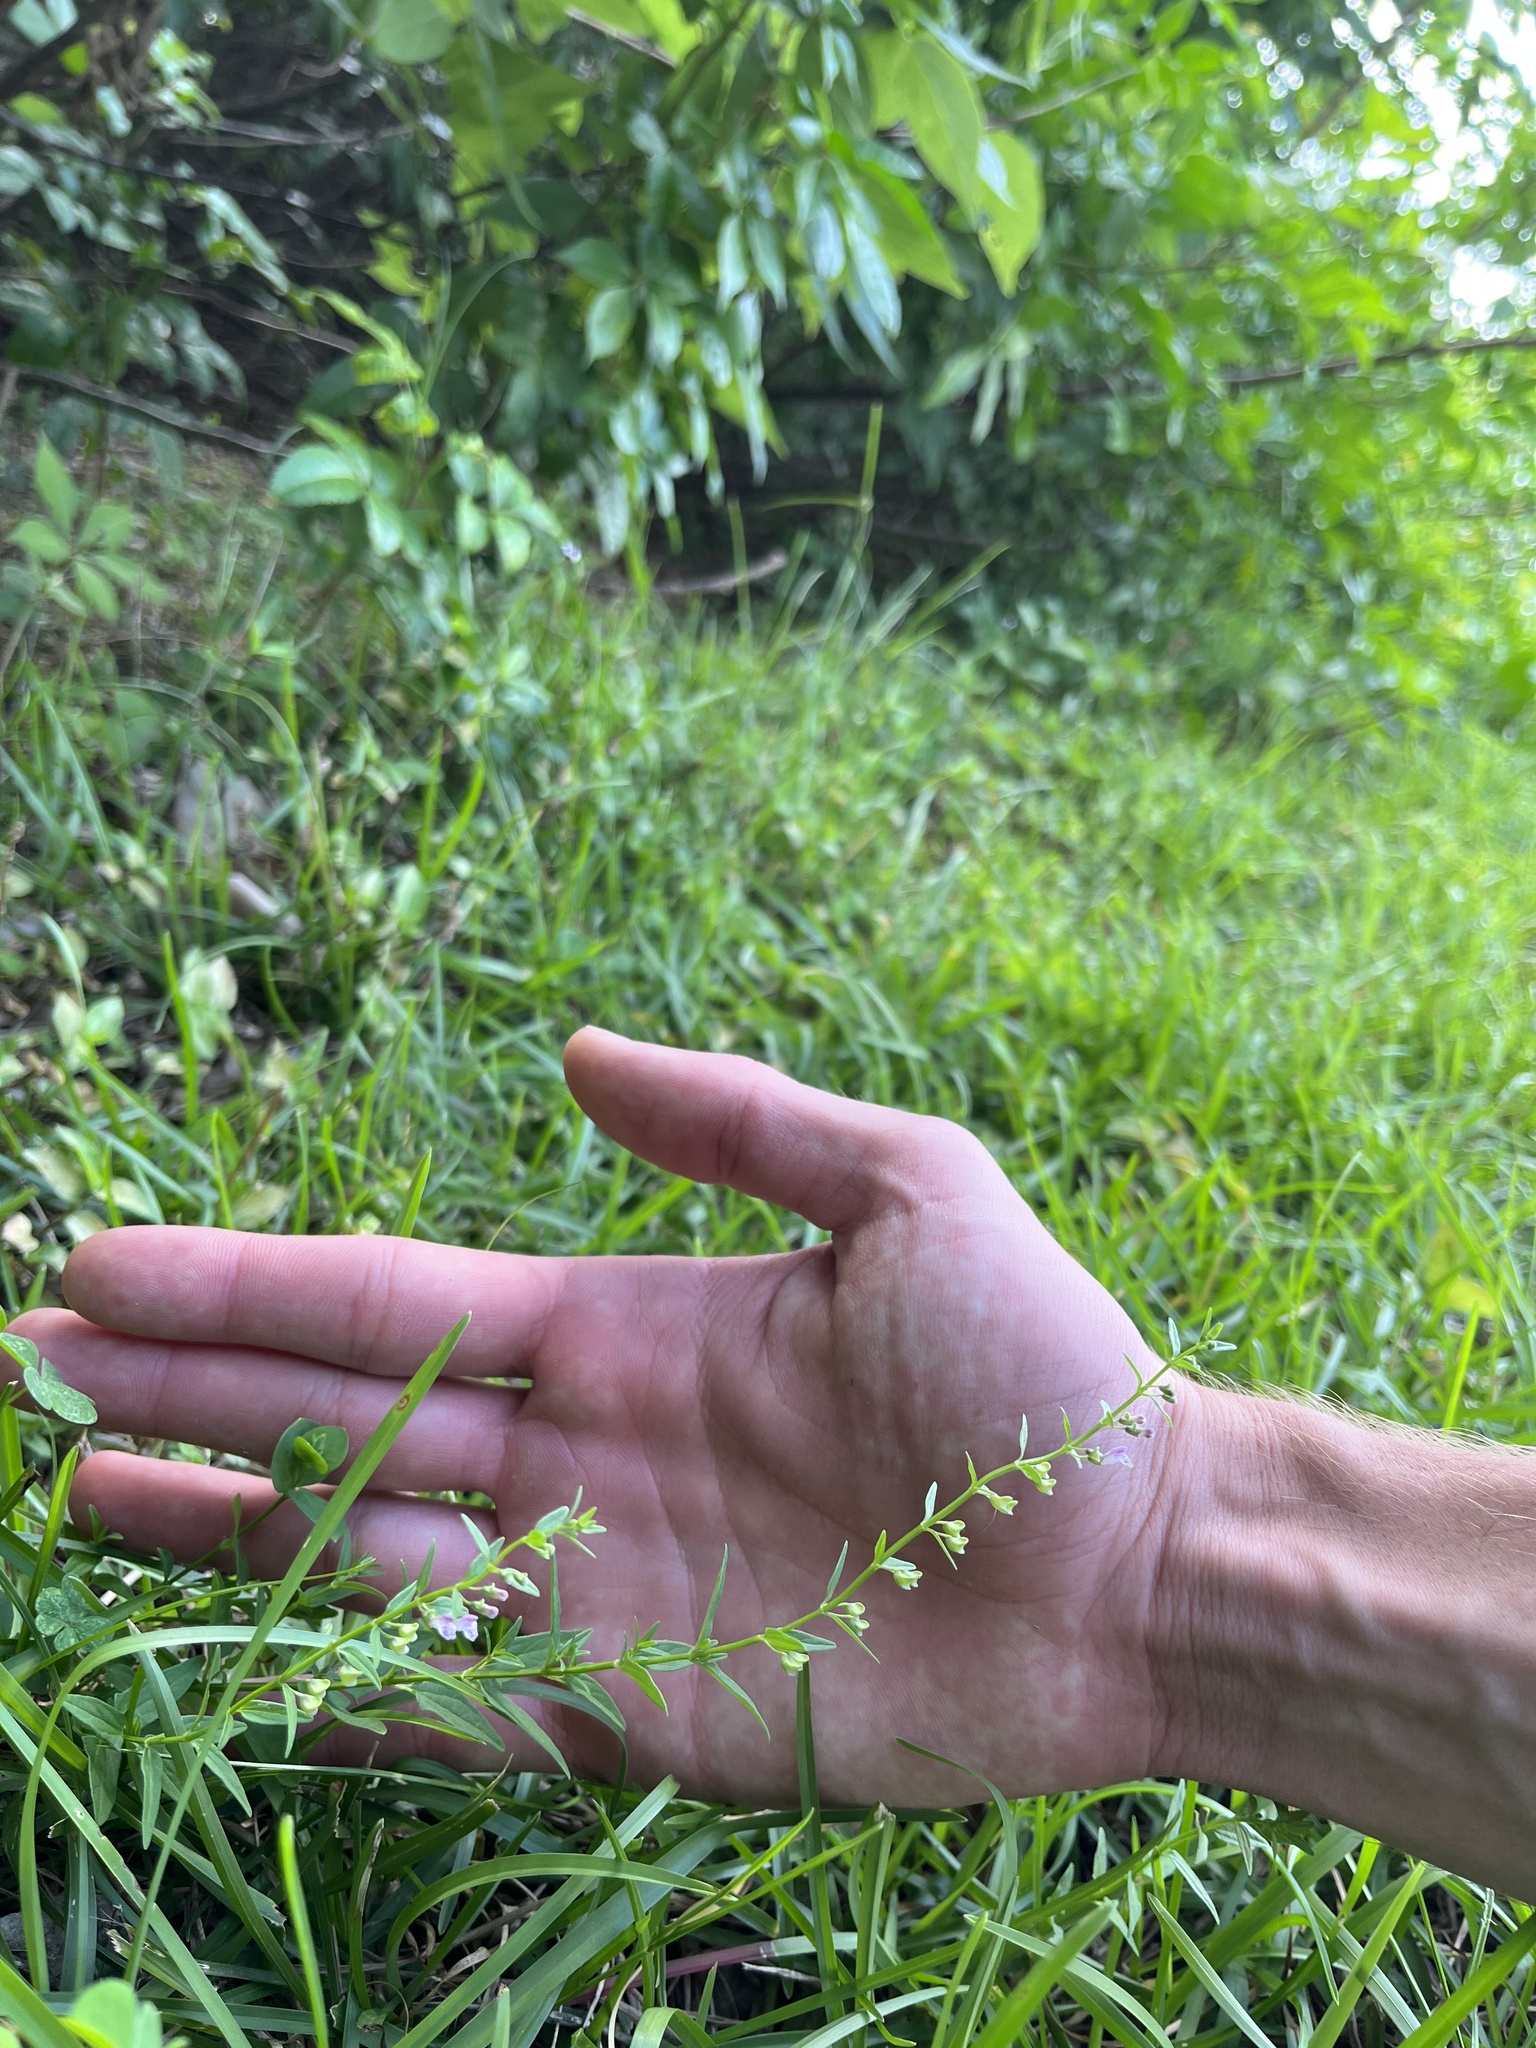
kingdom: Plantae
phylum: Tracheophyta
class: Magnoliopsida
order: Lamiales
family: Lamiaceae
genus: Scutellaria
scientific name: Scutellaria racemosa
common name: South american skullcap
